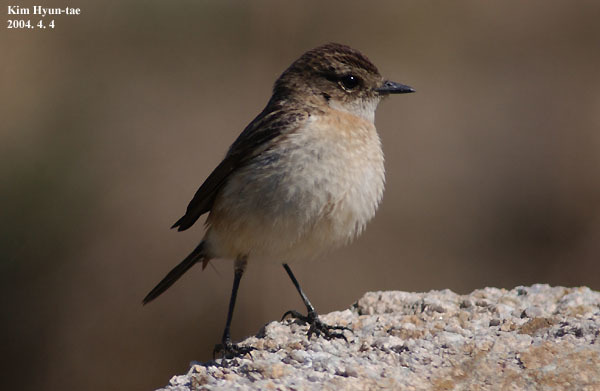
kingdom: Animalia
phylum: Chordata
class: Aves
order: Passeriformes
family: Muscicapidae
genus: Saxicola
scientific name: Saxicola stejnegeri
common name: Stejneger's stonechat
